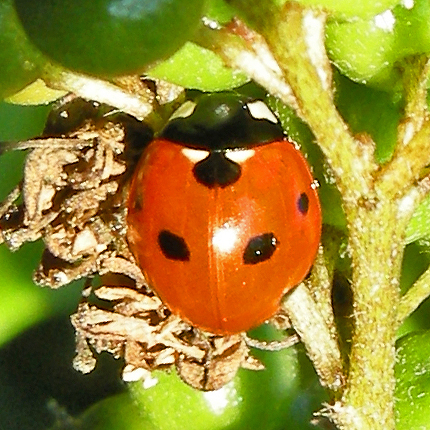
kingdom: Animalia
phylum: Arthropoda
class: Insecta
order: Coleoptera
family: Coccinellidae
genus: Coccinella
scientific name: Coccinella septempunctata
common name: Sevenspotted lady beetle
